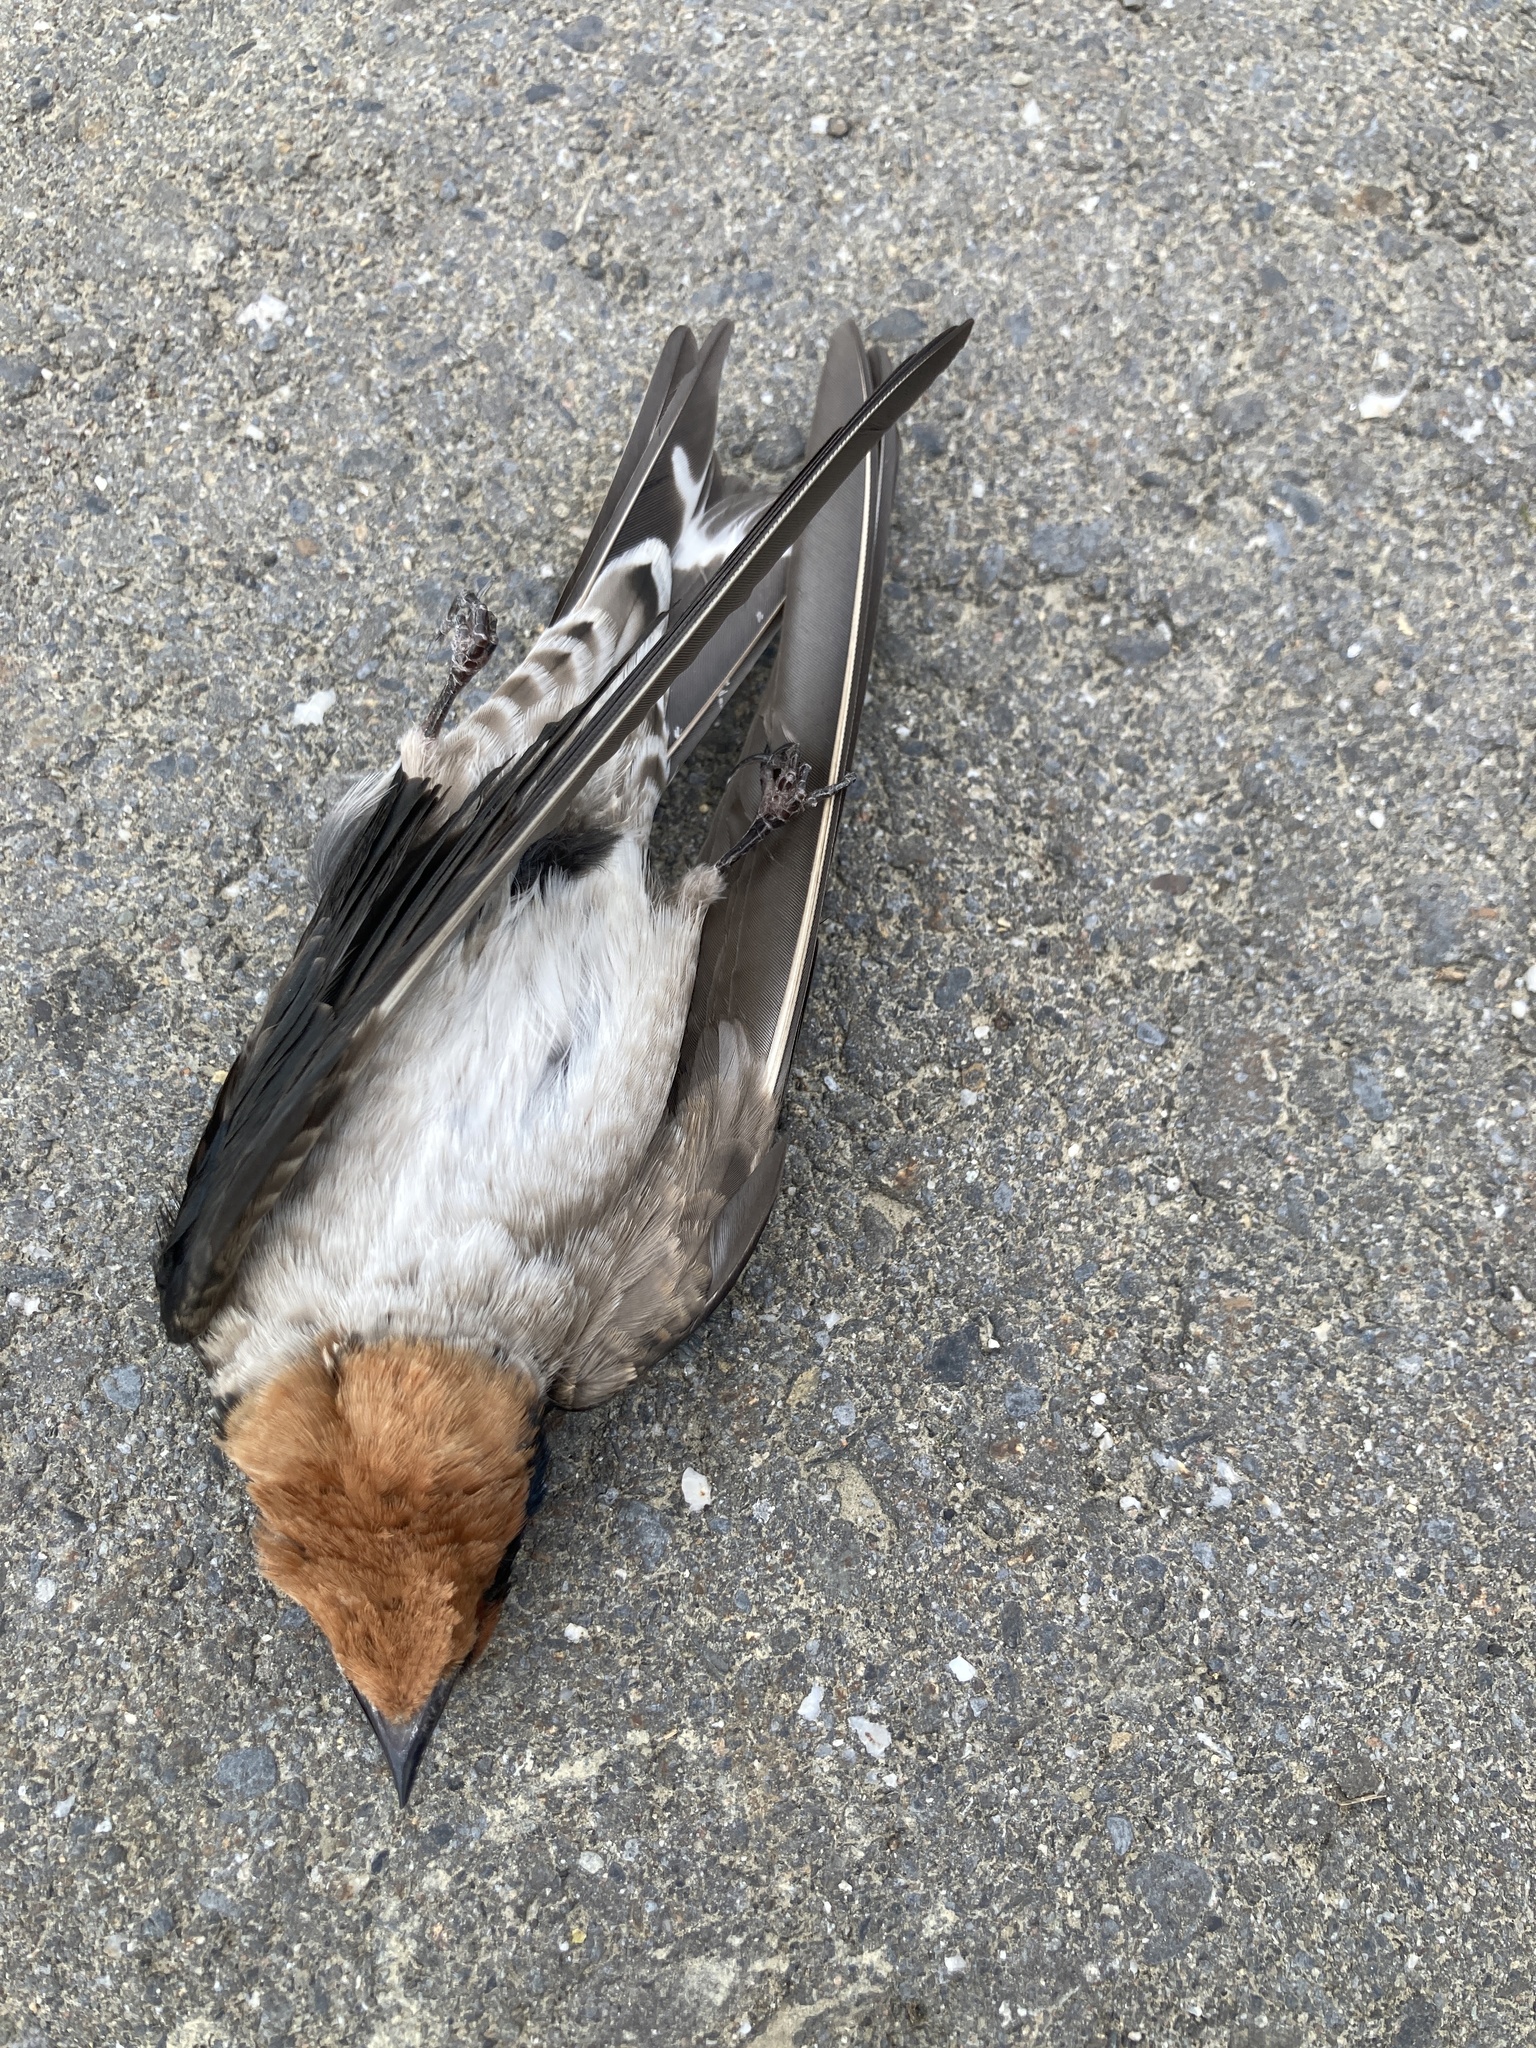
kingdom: Animalia
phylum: Chordata
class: Aves
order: Passeriformes
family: Hirundinidae
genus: Hirundo
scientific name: Hirundo tahitica
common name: Pacific swallow
